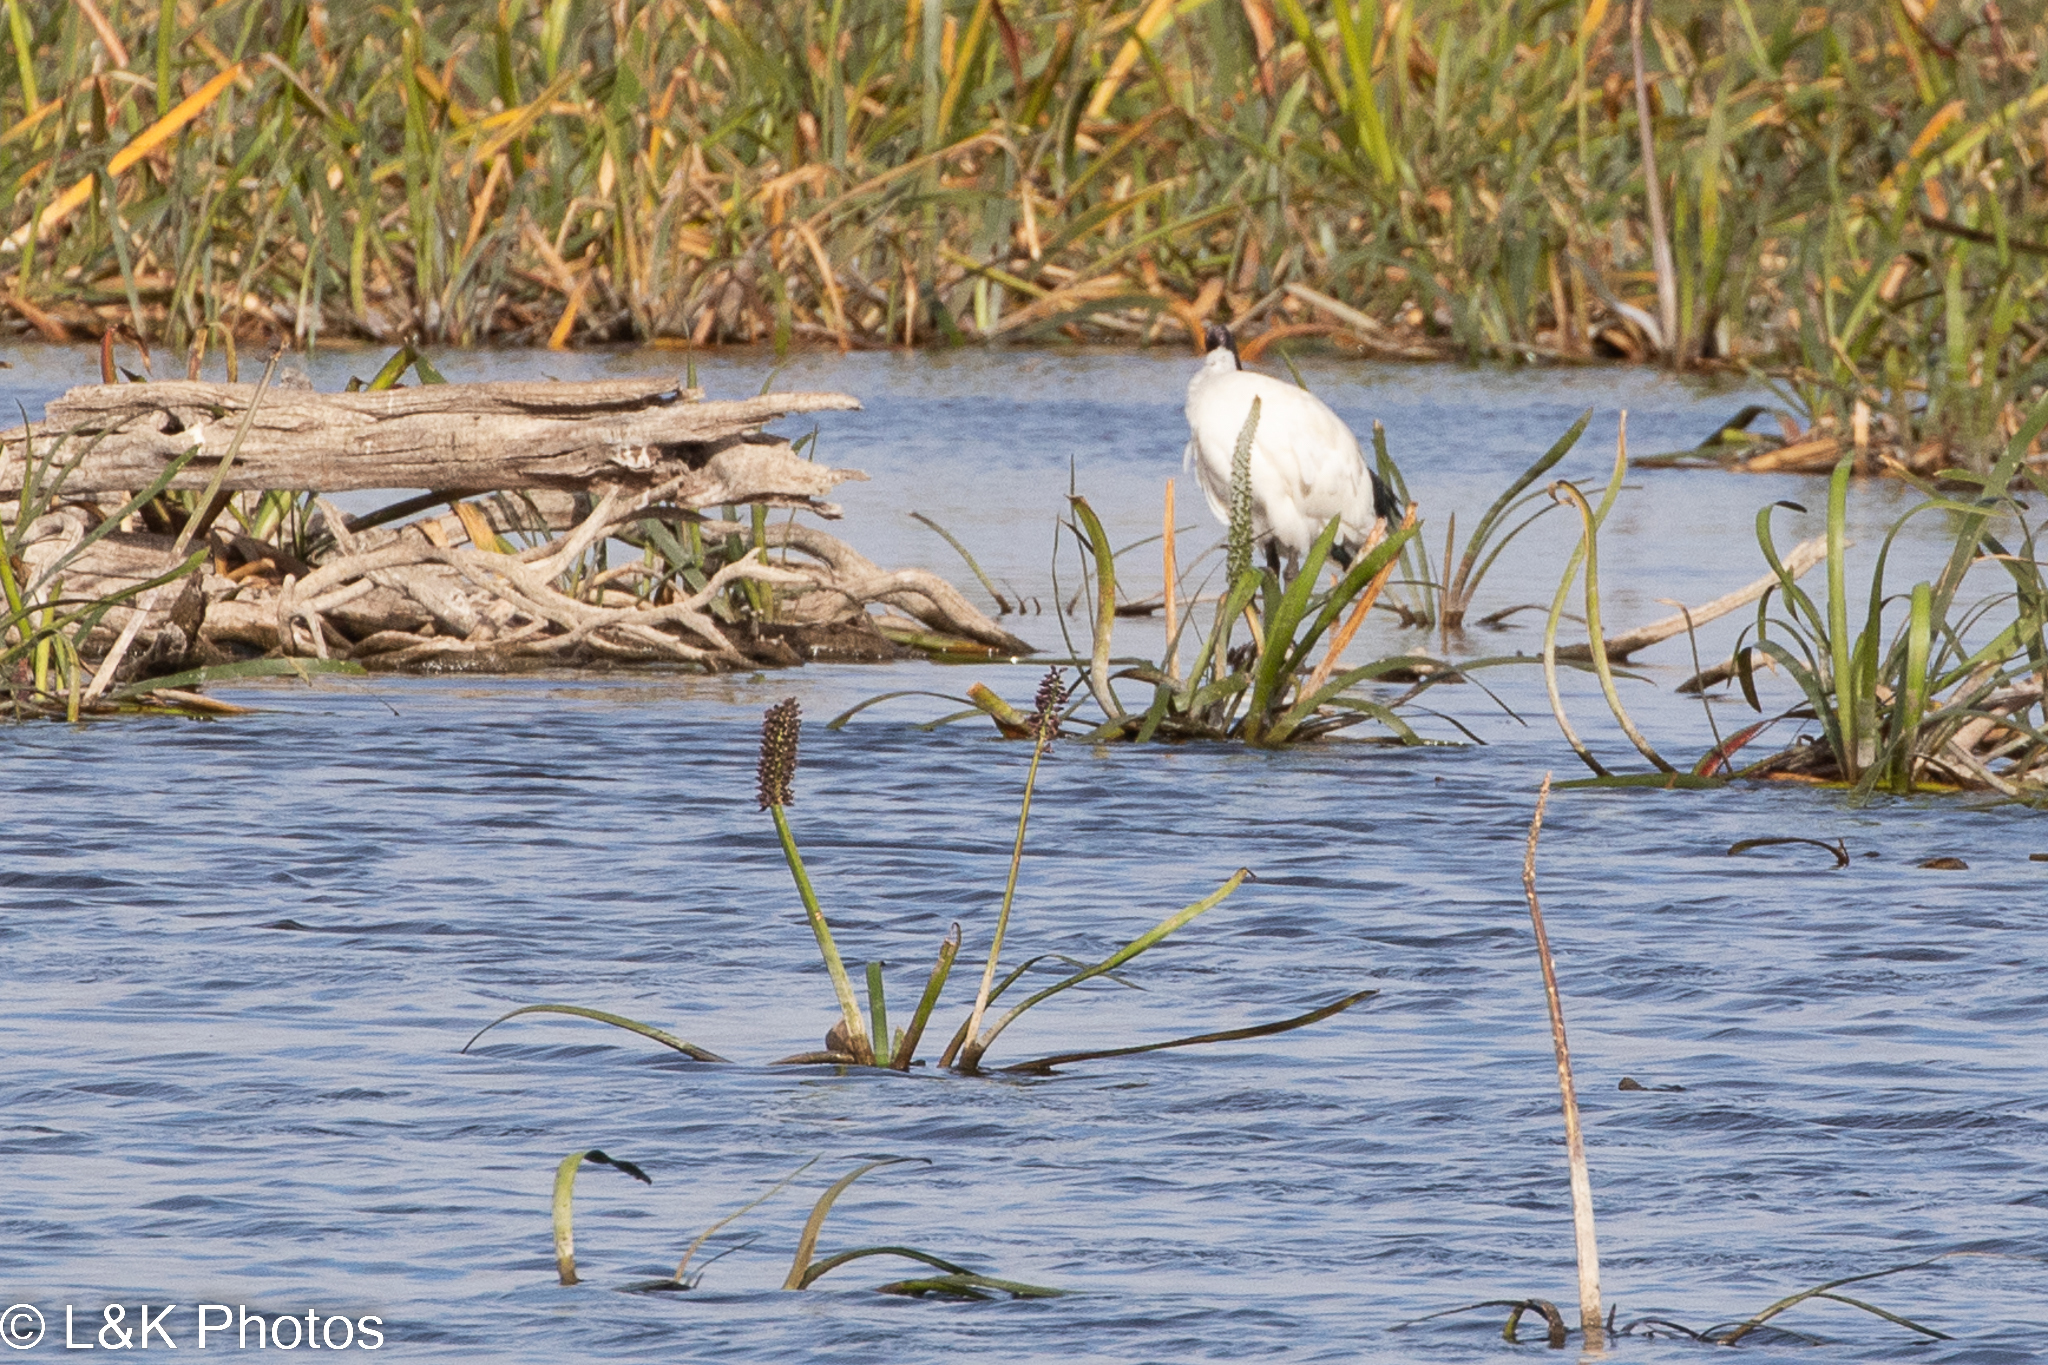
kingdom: Plantae
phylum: Tracheophyta
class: Liliopsida
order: Alismatales
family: Juncaginaceae
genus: Cycnogeton
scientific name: Cycnogeton procerum
